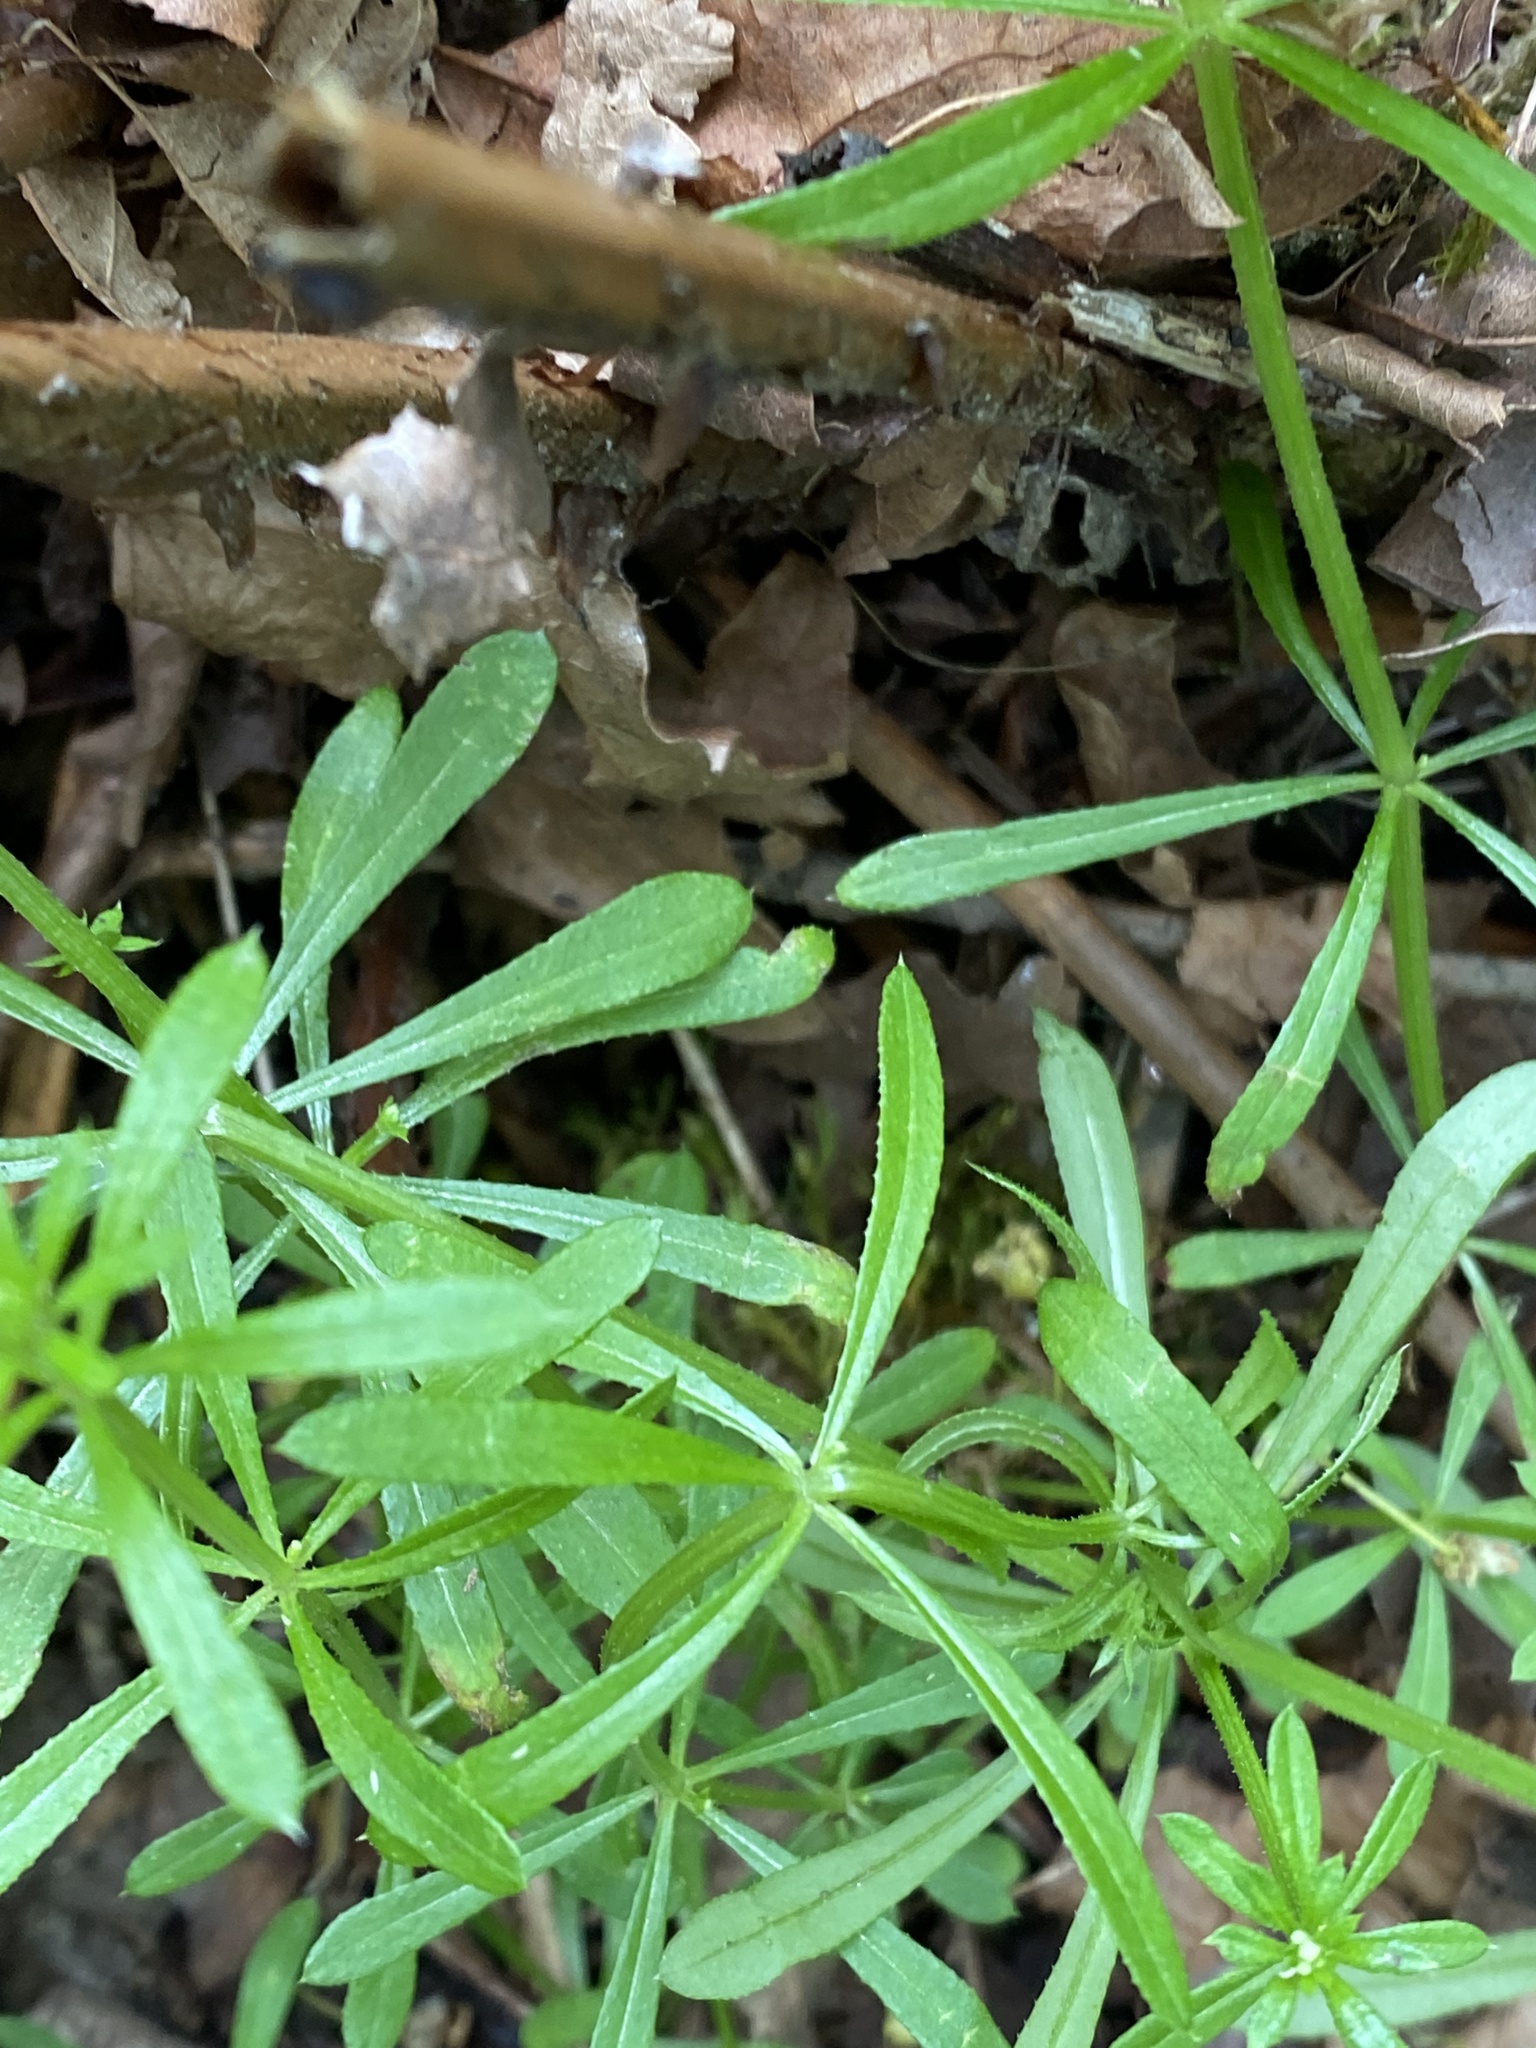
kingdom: Plantae
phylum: Tracheophyta
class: Magnoliopsida
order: Gentianales
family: Rubiaceae
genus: Galium
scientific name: Galium aparine
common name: Cleavers
